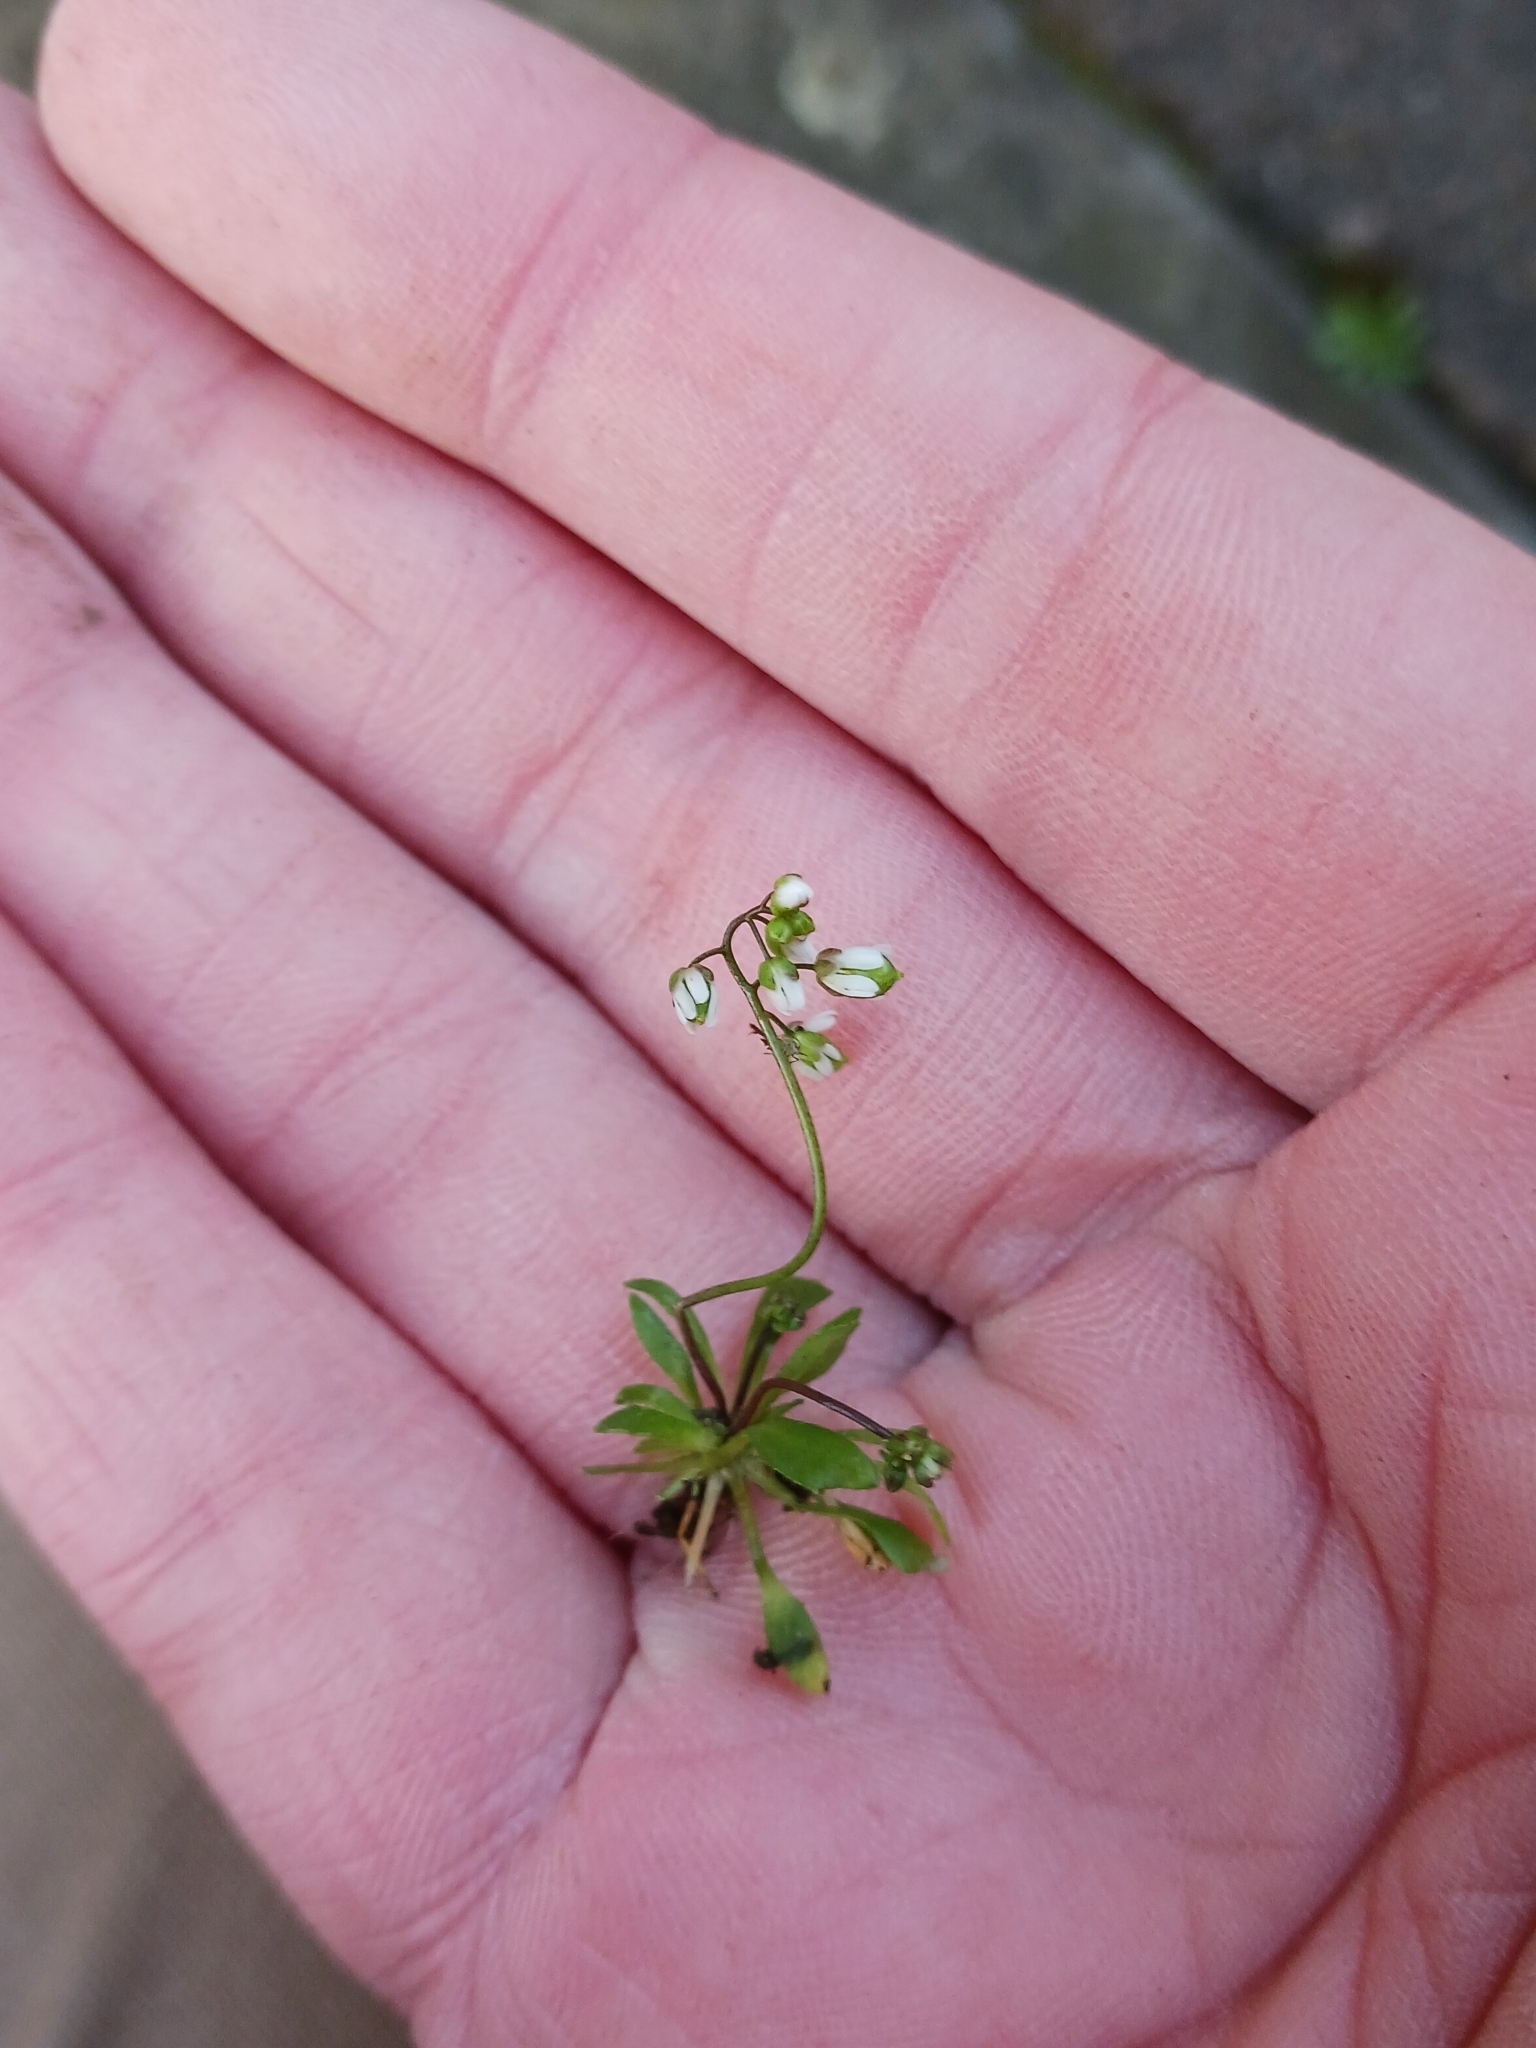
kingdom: Plantae
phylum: Tracheophyta
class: Magnoliopsida
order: Brassicales
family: Brassicaceae
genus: Draba
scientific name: Draba
